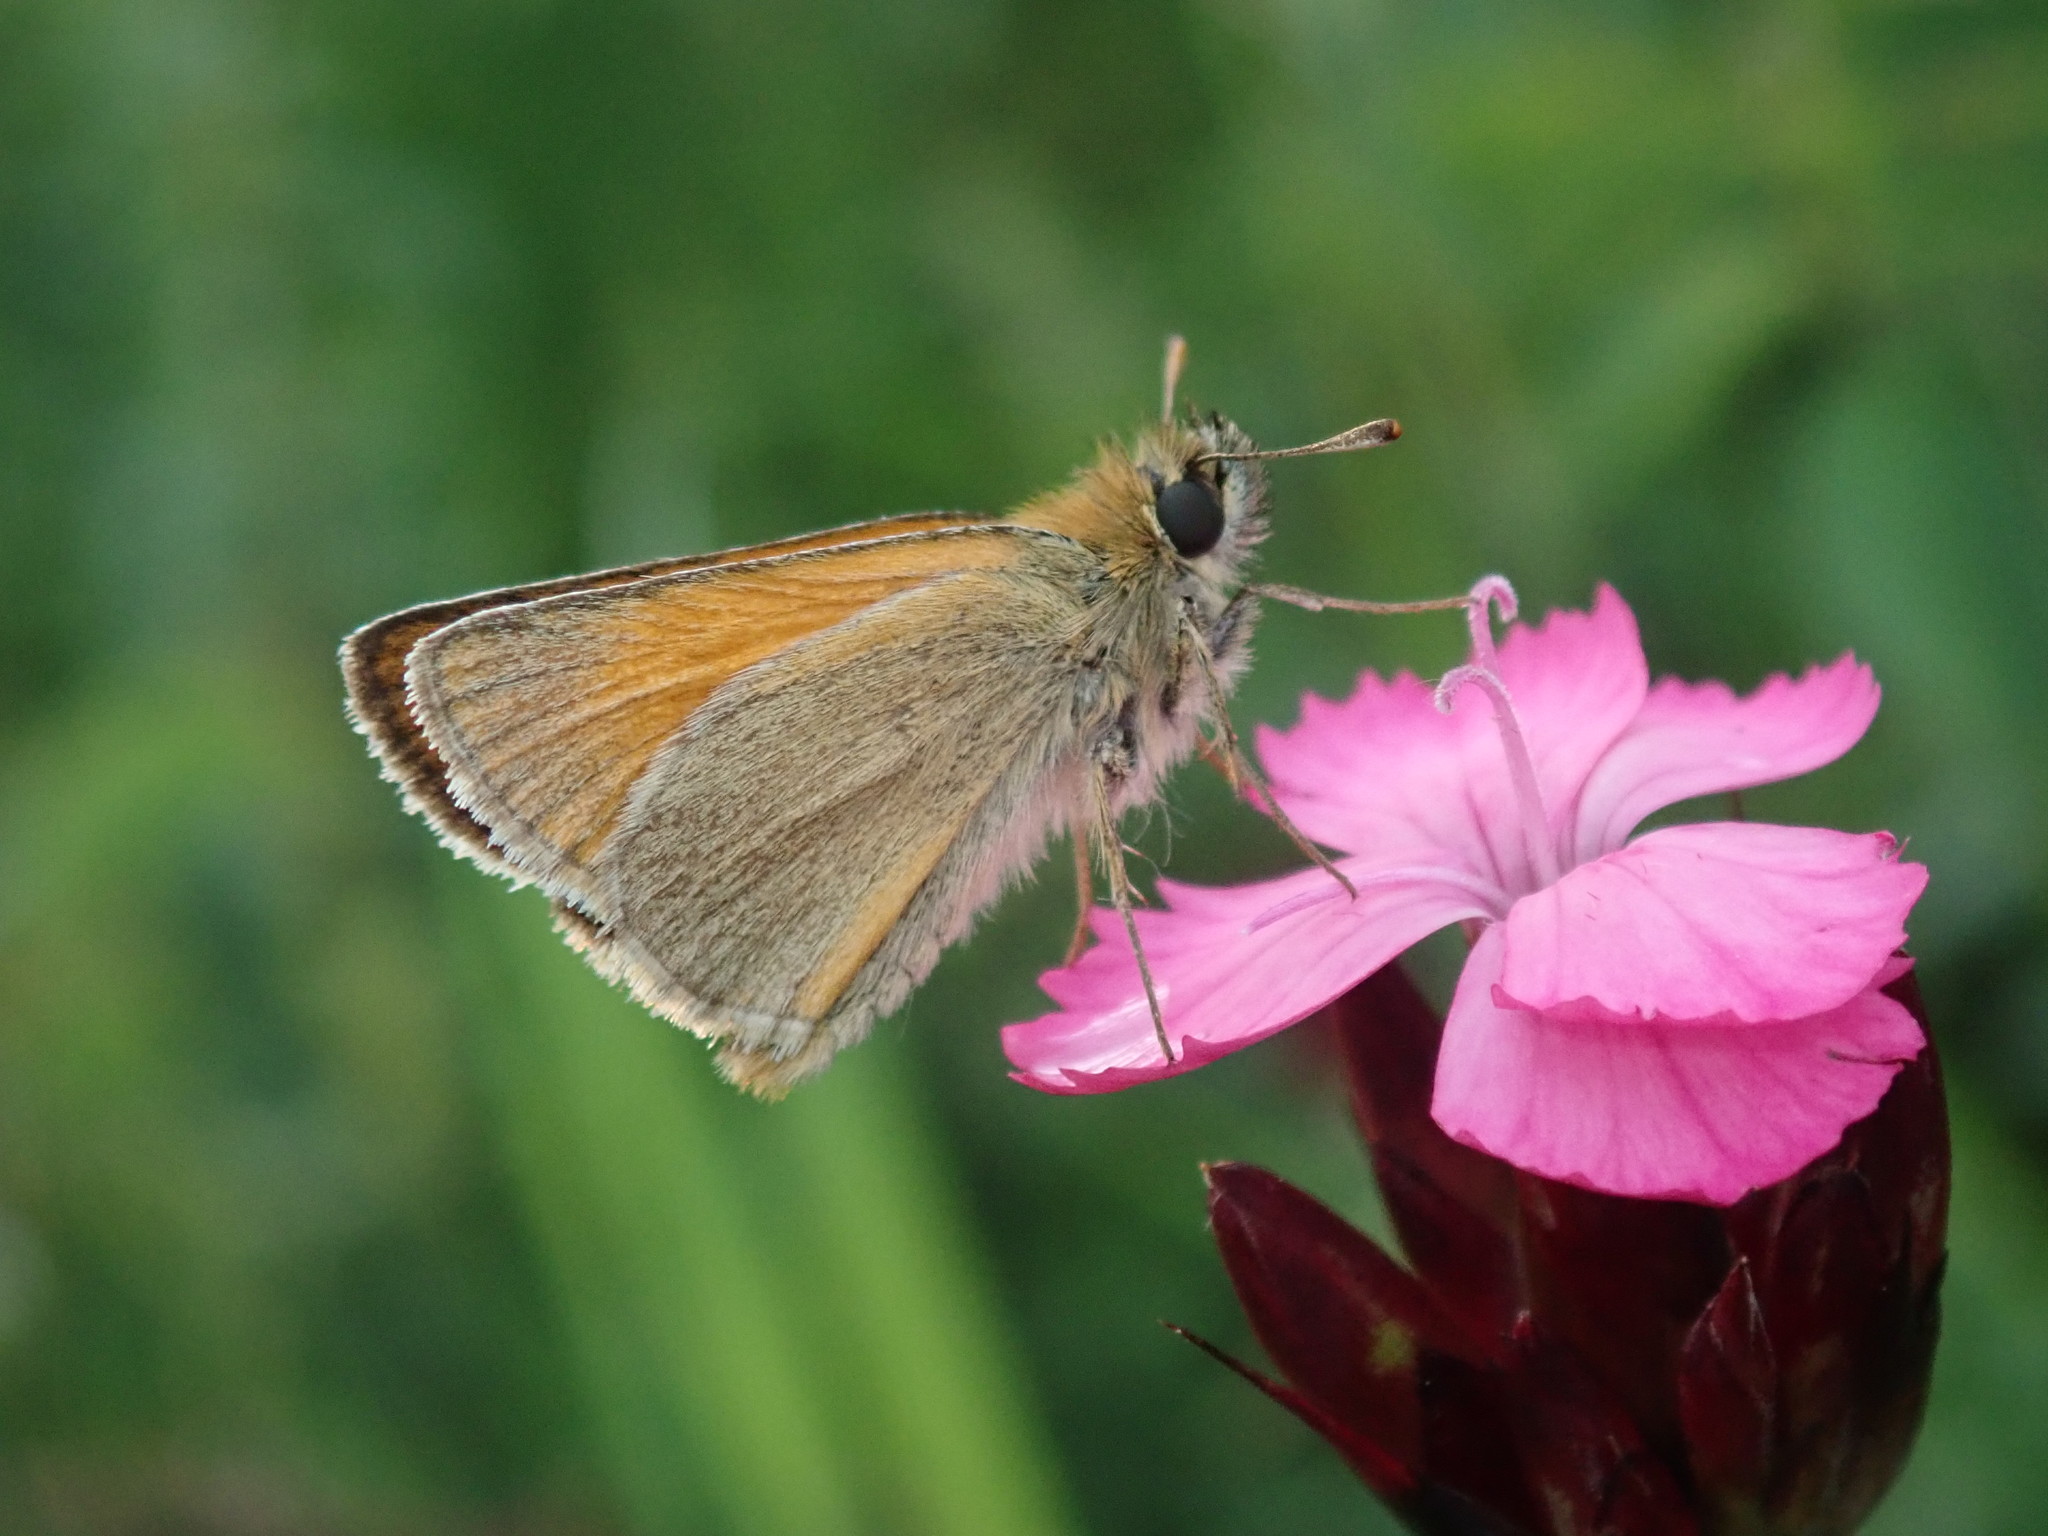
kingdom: Animalia
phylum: Arthropoda
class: Insecta
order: Lepidoptera
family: Hesperiidae
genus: Thymelicus
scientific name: Thymelicus sylvestris
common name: Small skipper
